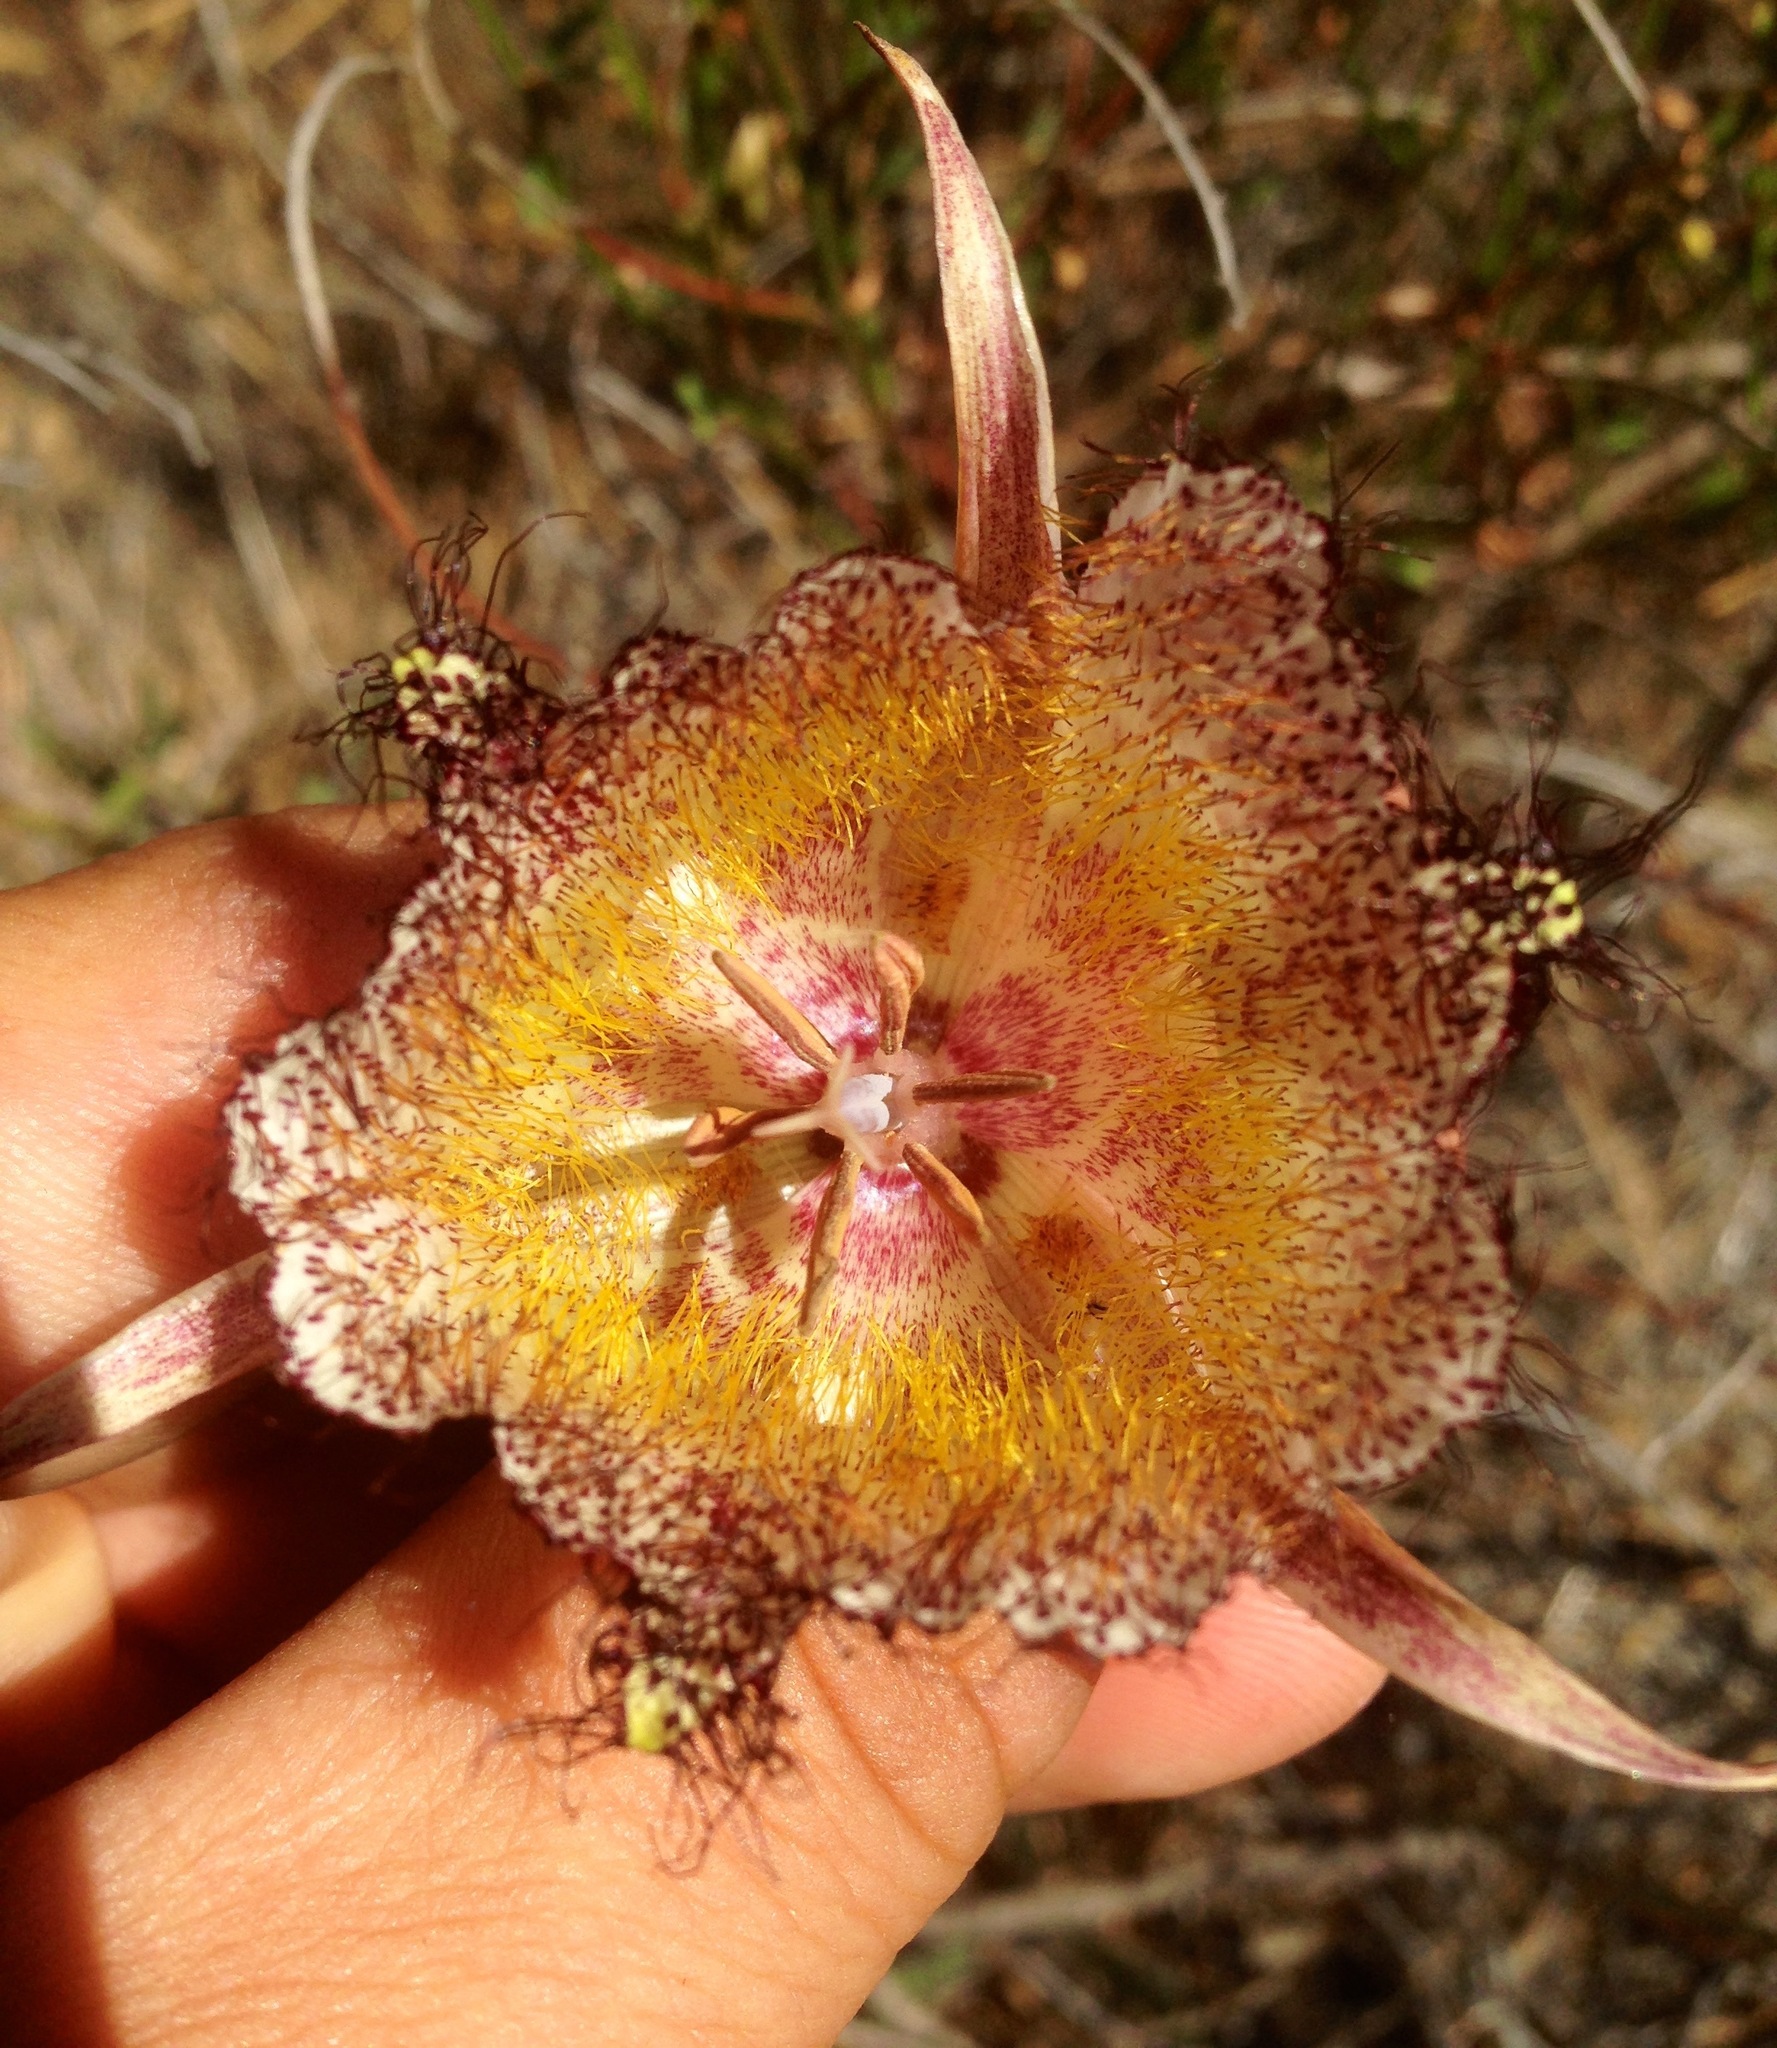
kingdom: Plantae
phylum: Tracheophyta
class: Liliopsida
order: Liliales
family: Liliaceae
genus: Calochortus
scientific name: Calochortus fimbriatus
